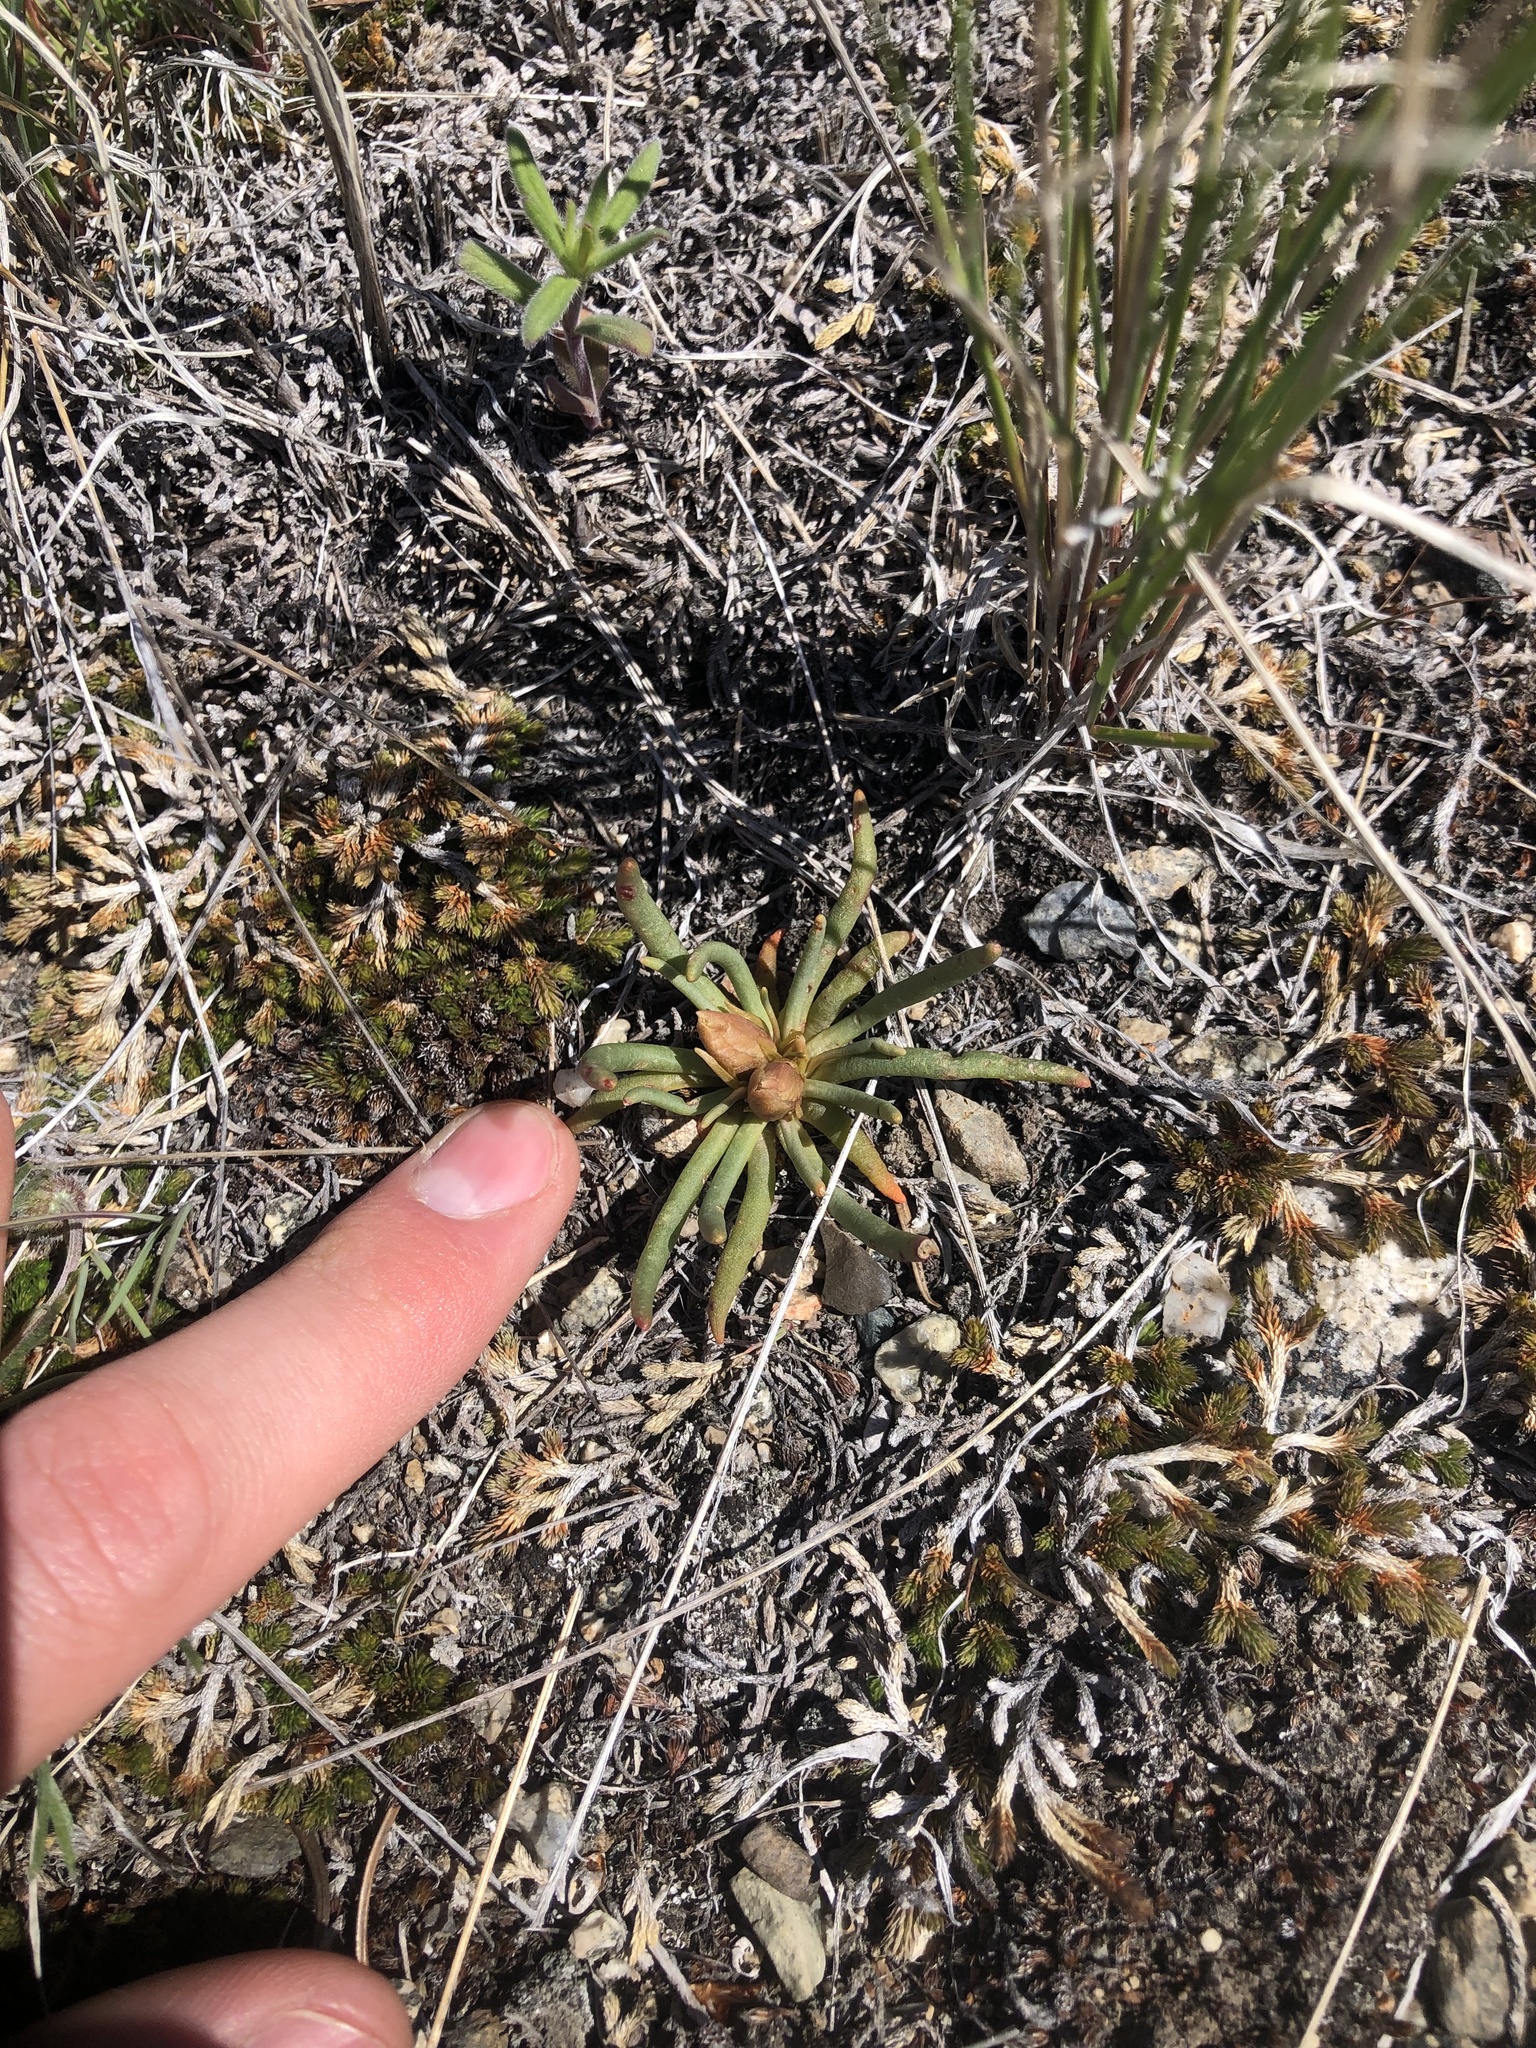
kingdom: Plantae
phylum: Tracheophyta
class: Magnoliopsida
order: Caryophyllales
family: Montiaceae
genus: Lewisia
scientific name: Lewisia rediviva
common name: Bitter-root
